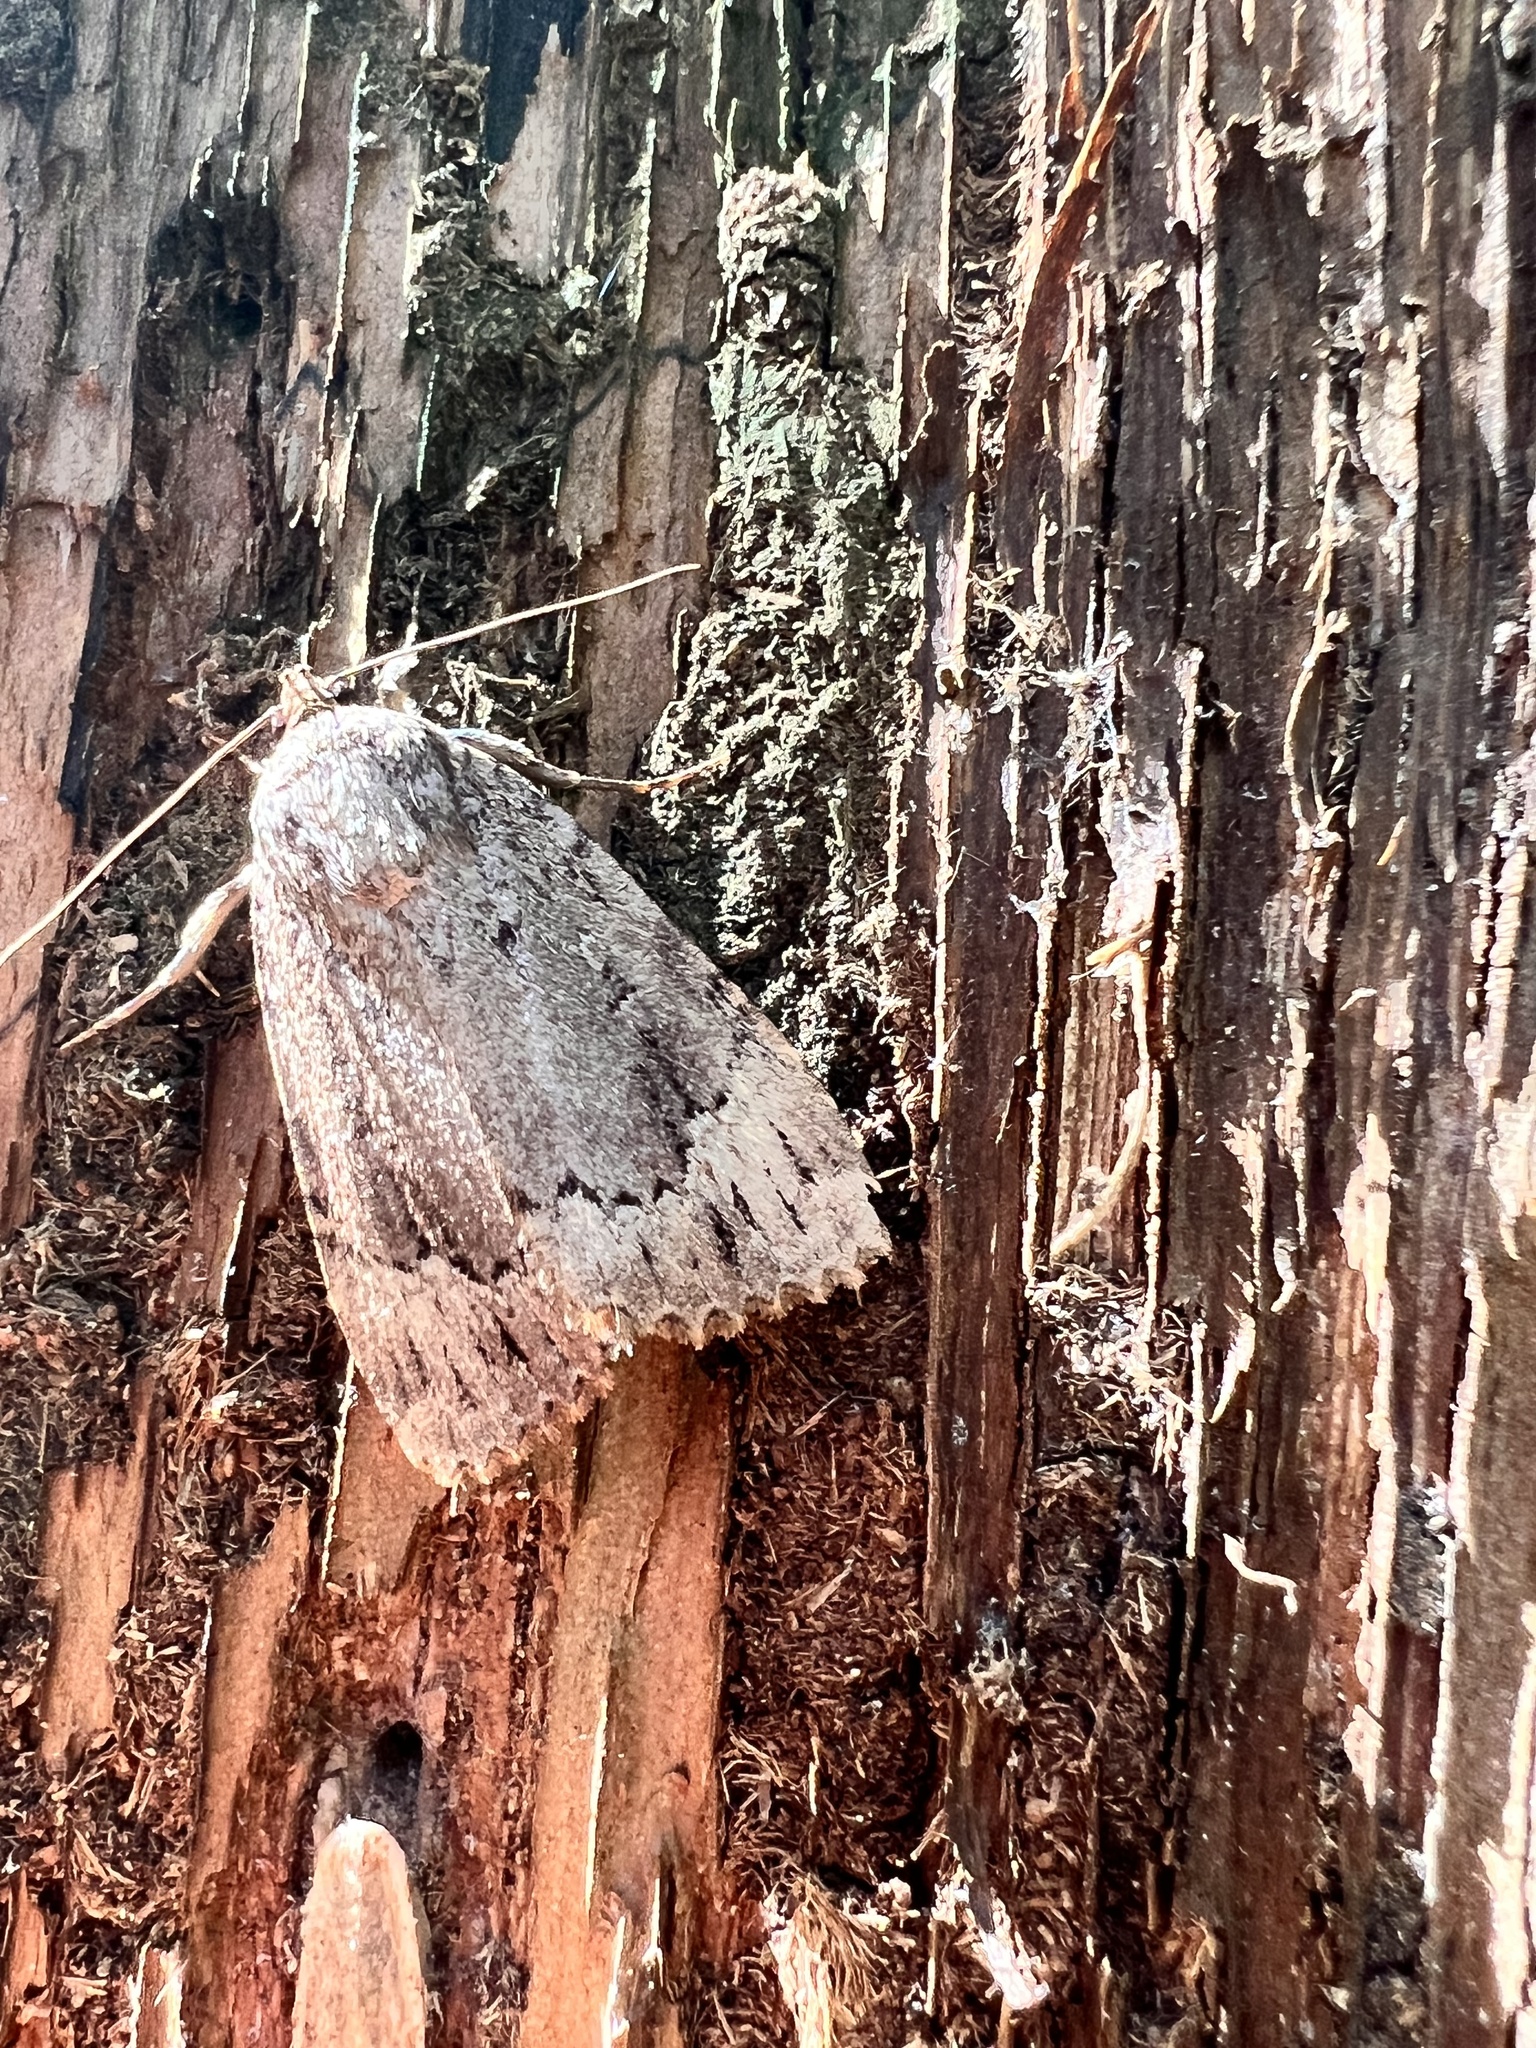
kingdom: Animalia
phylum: Arthropoda
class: Insecta
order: Lepidoptera
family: Noctuidae
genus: Amphipyra
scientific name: Amphipyra pyramidoides
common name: American copper underwing
